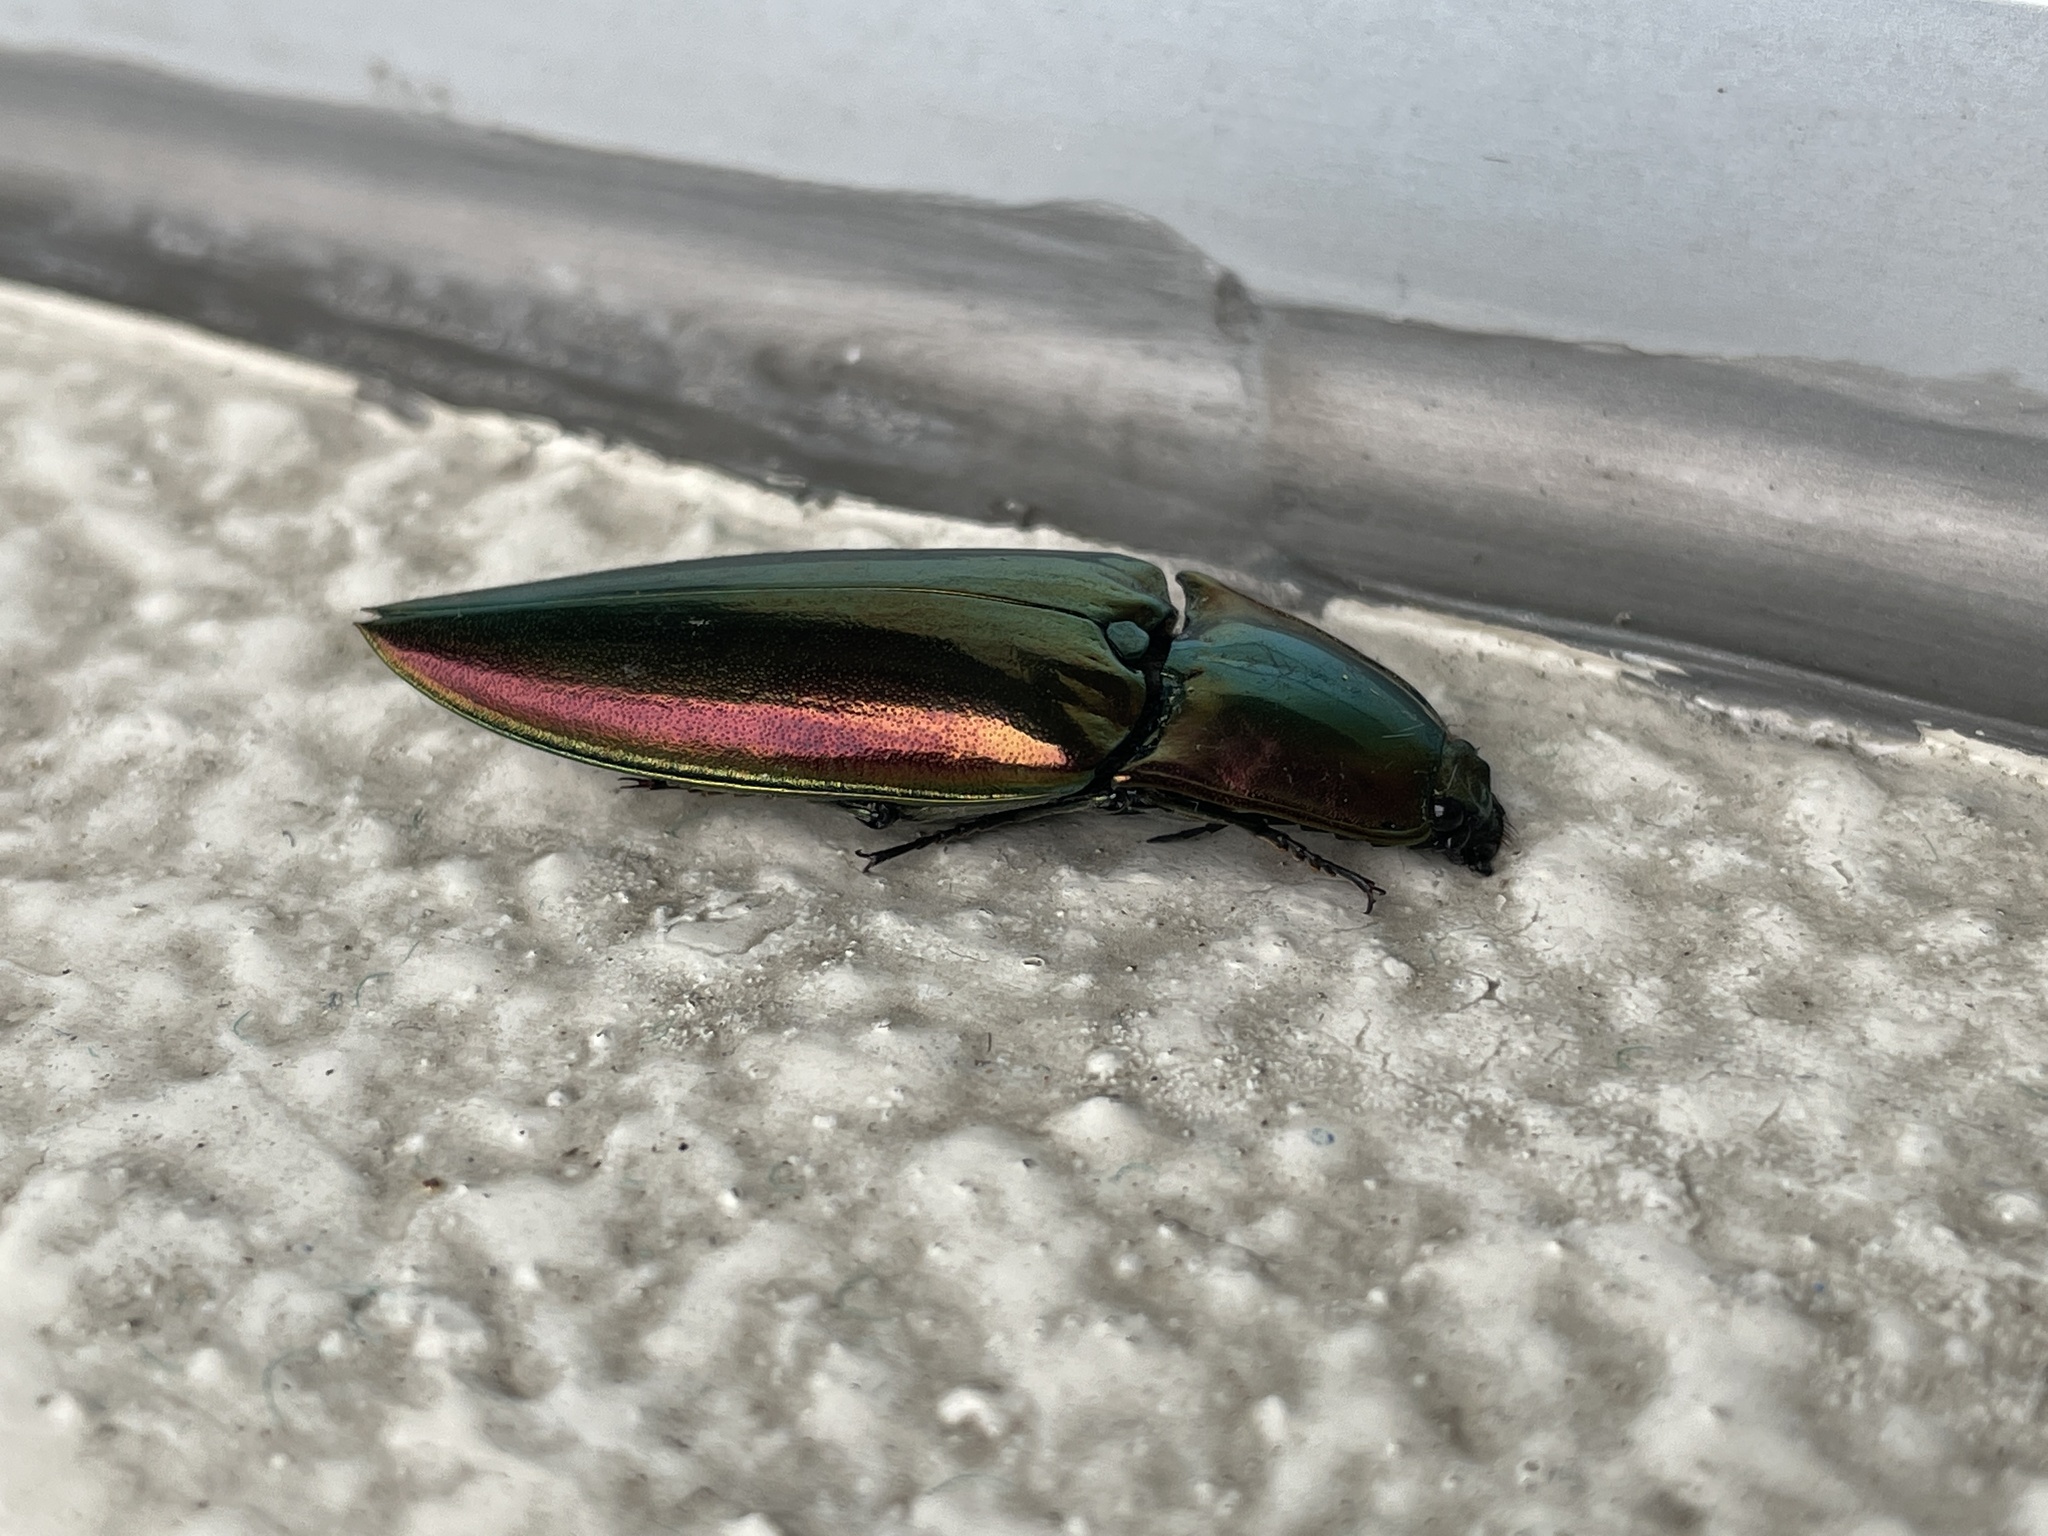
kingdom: Animalia
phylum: Arthropoda
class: Insecta
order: Coleoptera
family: Elateridae
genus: Campsosternus
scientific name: Campsosternus auratus
